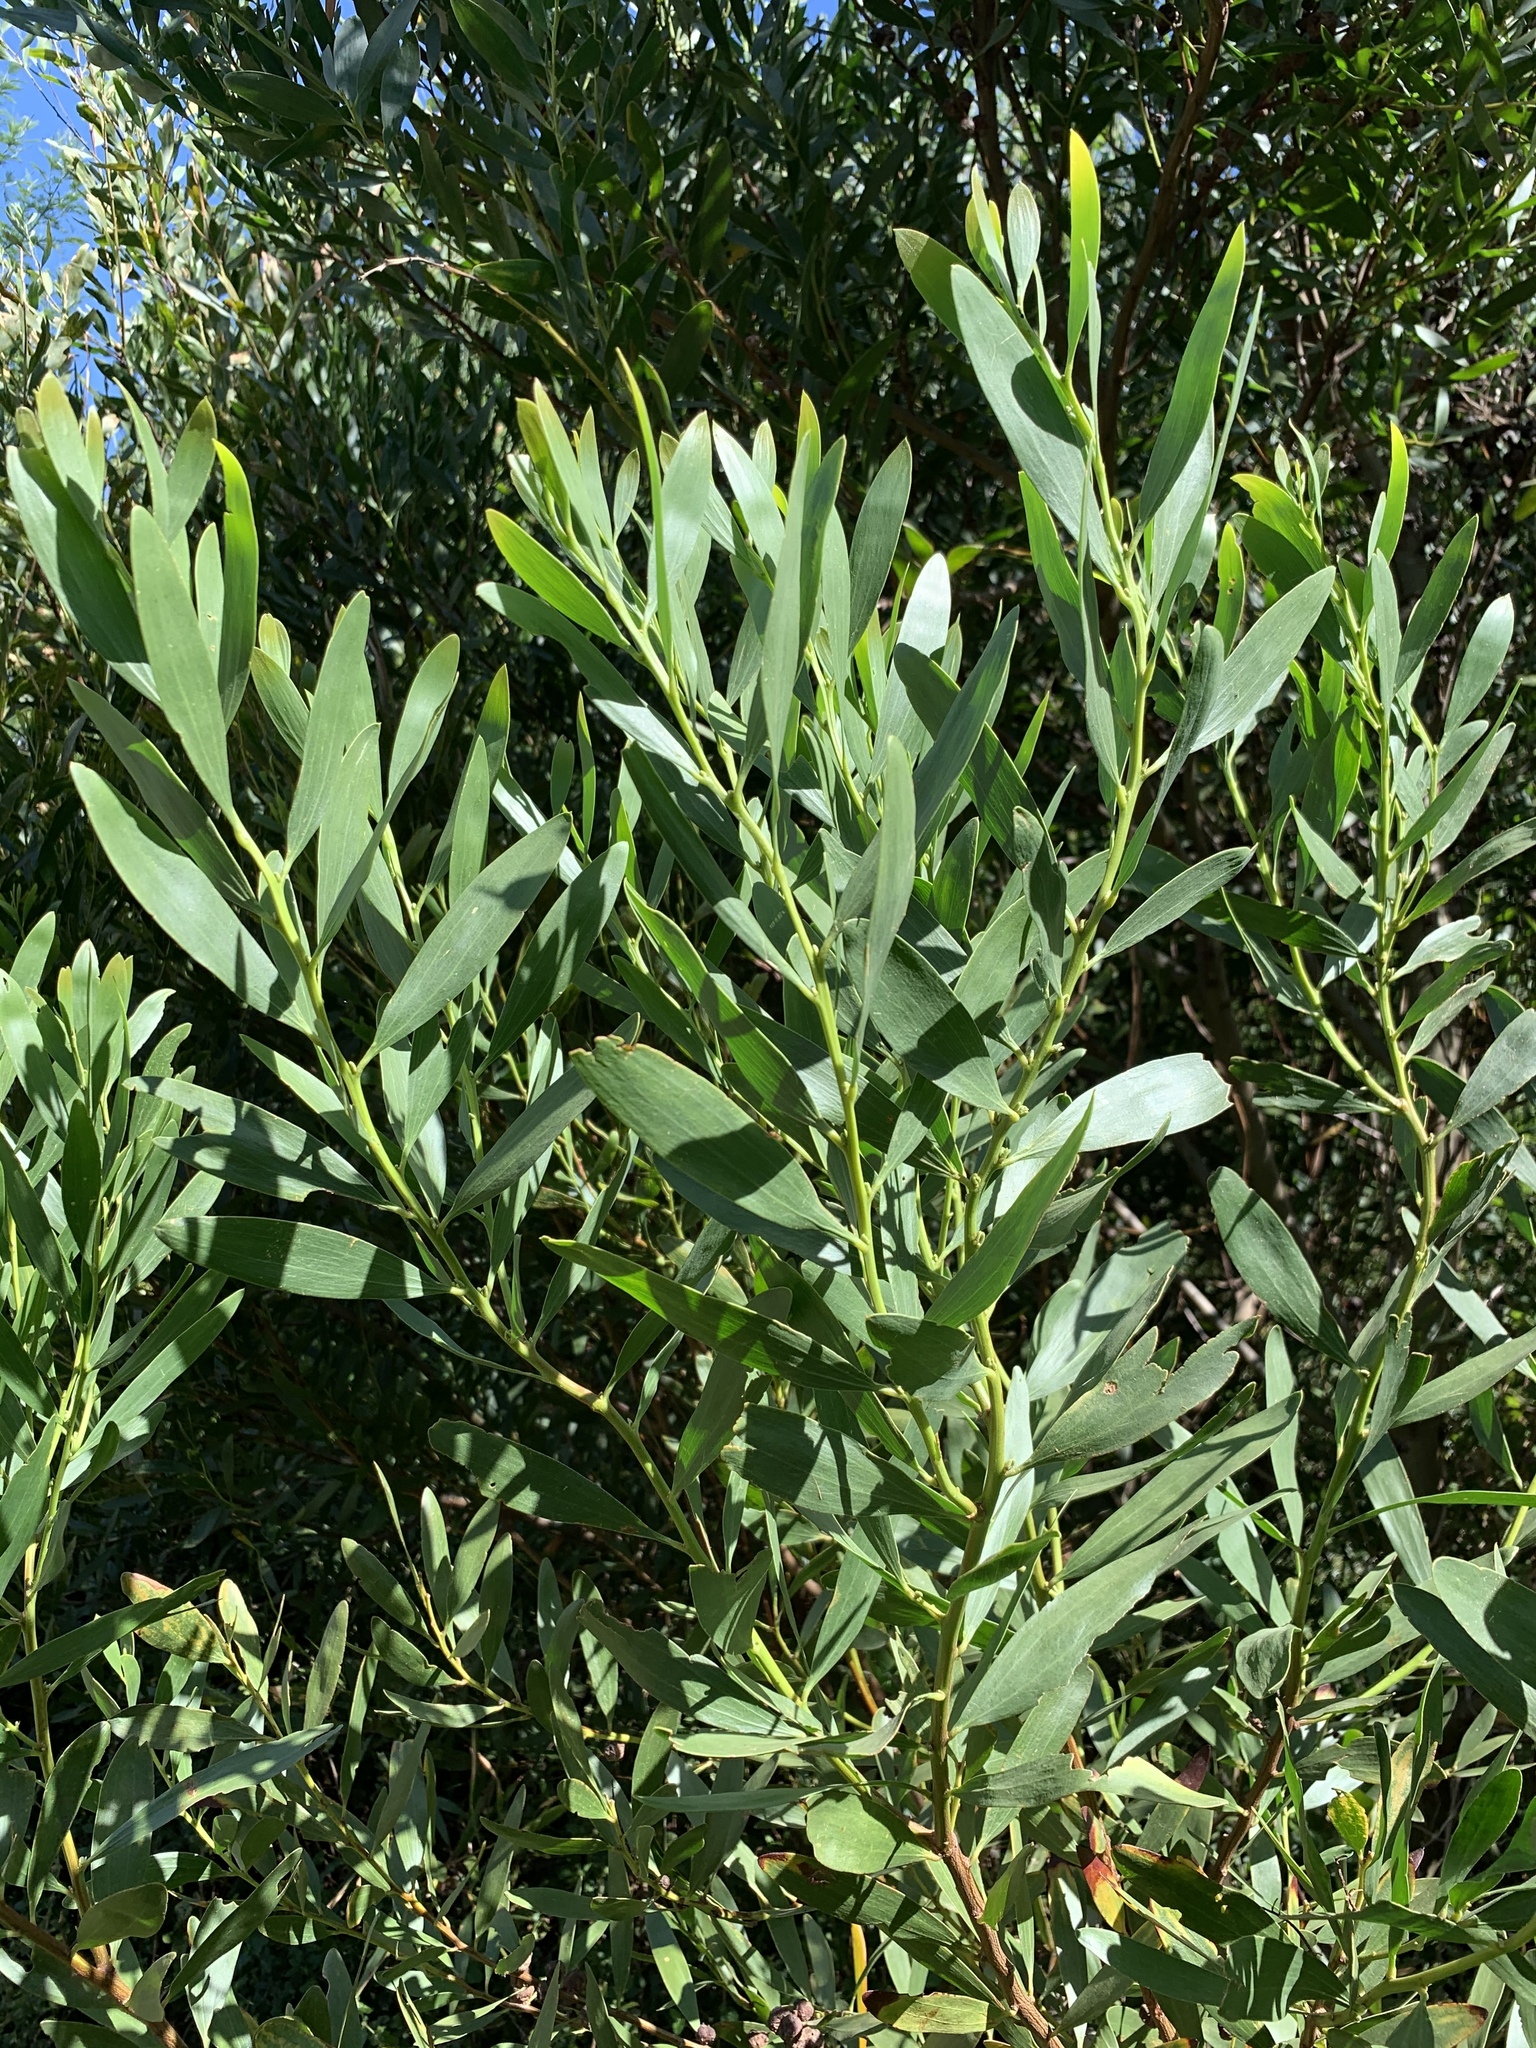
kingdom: Plantae
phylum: Tracheophyta
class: Magnoliopsida
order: Fabales
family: Fabaceae
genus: Acacia
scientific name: Acacia longifolia
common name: Sydney golden wattle
